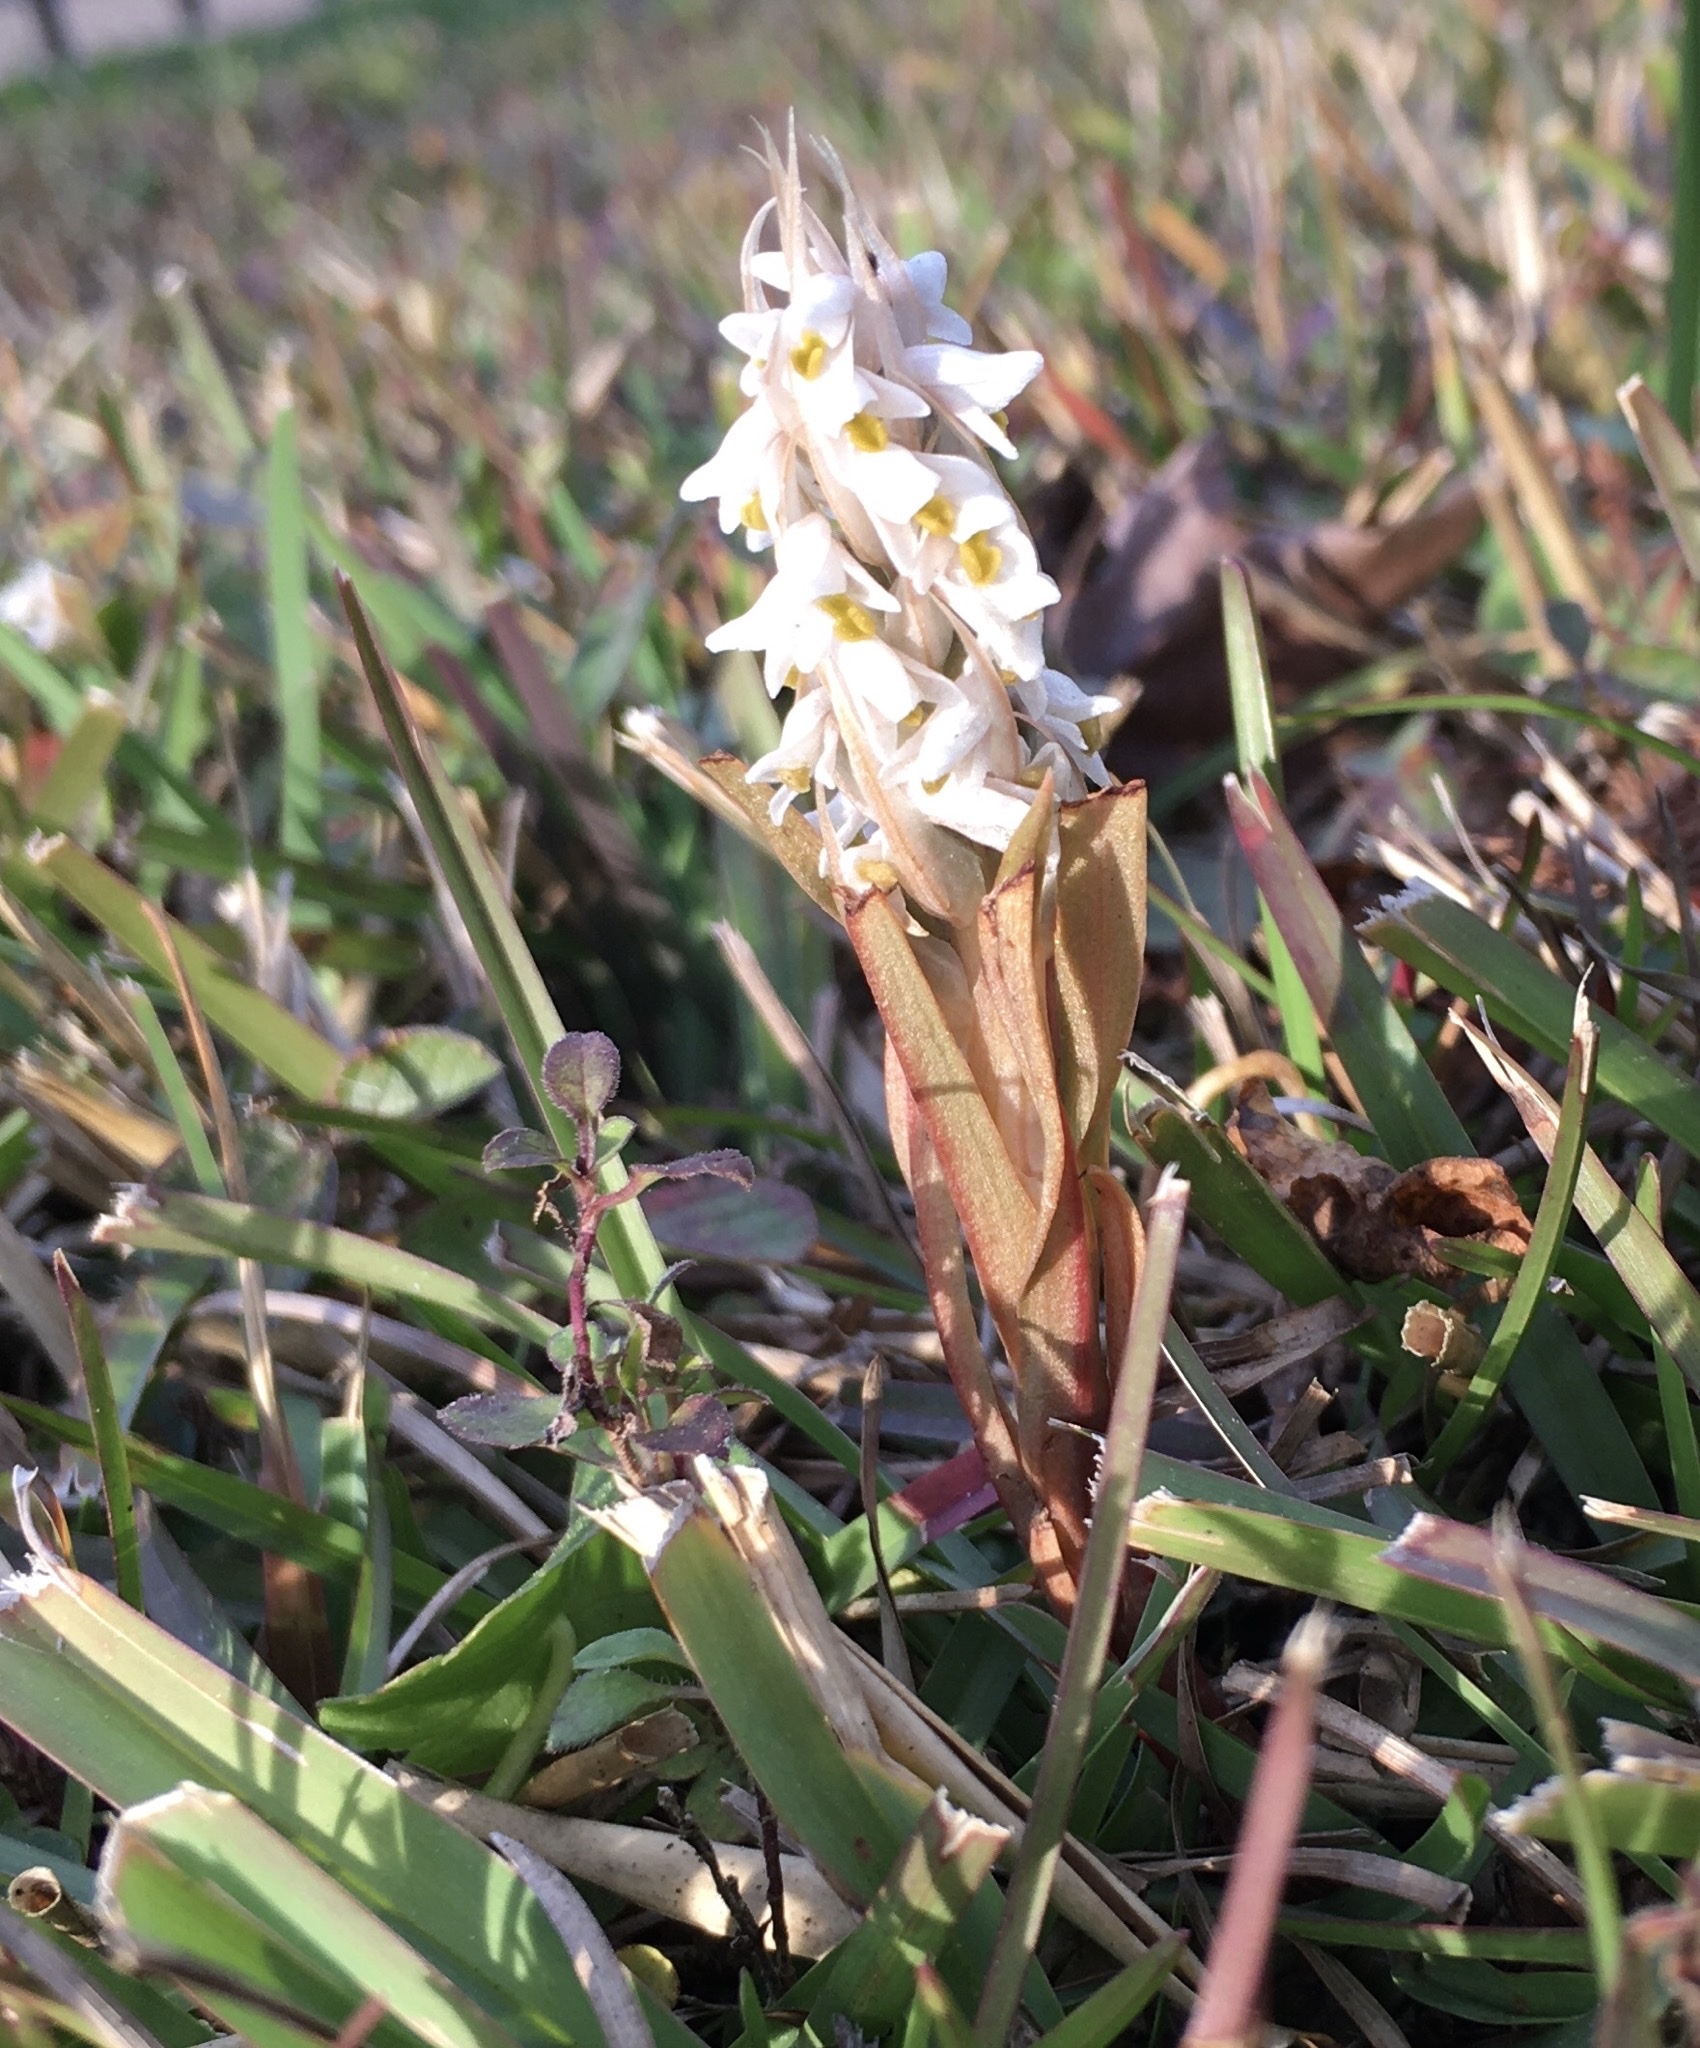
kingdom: Plantae
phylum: Tracheophyta
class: Liliopsida
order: Asparagales
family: Orchidaceae
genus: Zeuxine
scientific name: Zeuxine strateumatica
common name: Soldier's orchid
